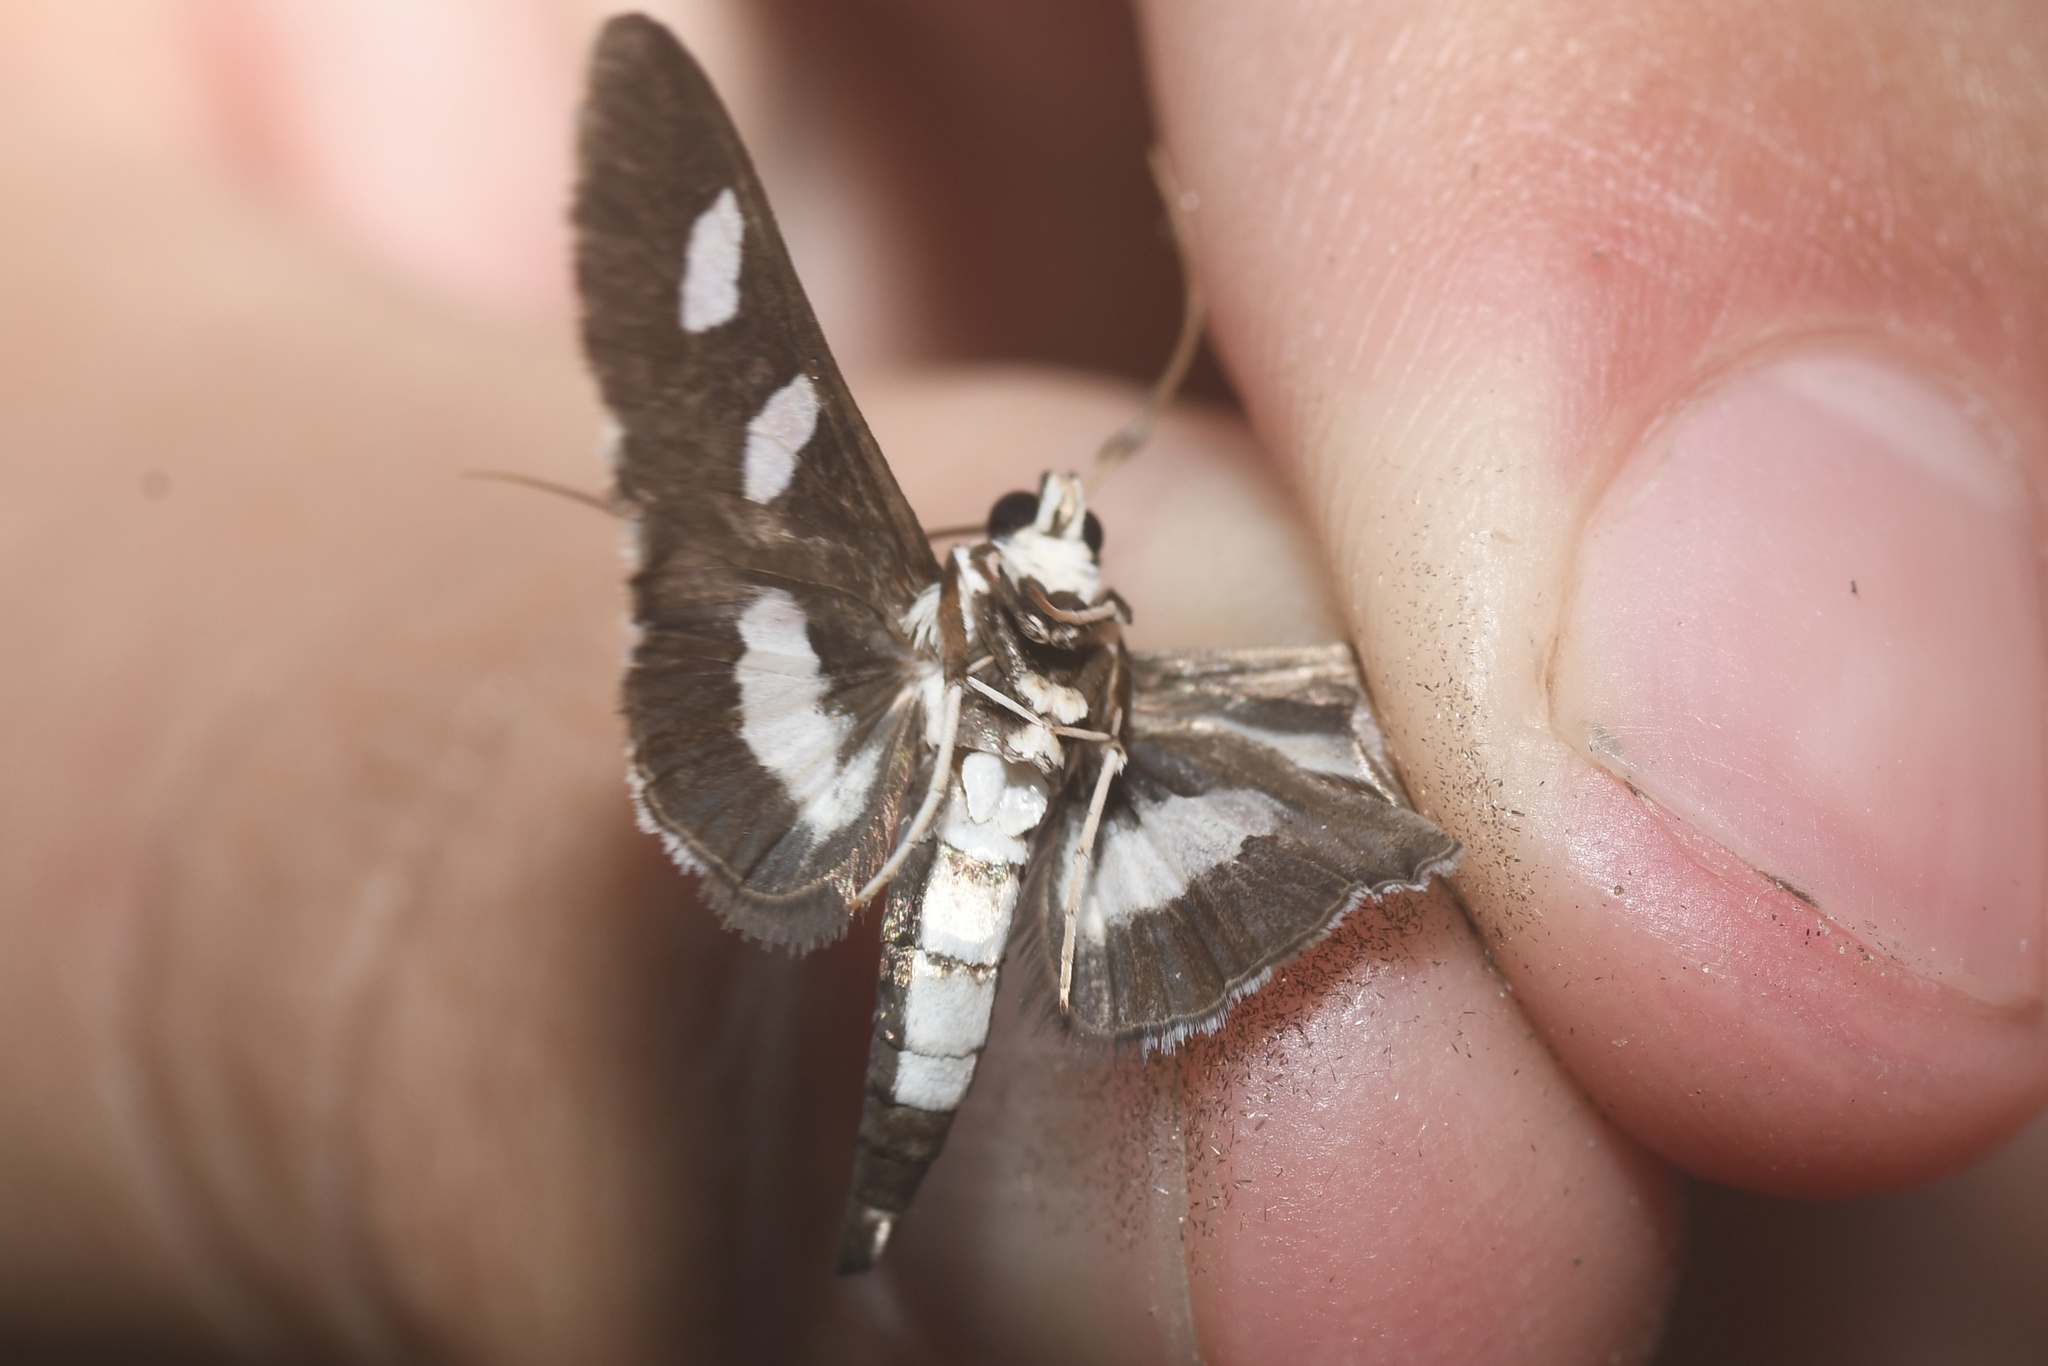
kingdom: Animalia
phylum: Arthropoda
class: Insecta
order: Lepidoptera
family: Crambidae
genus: Desmia
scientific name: Desmia funeralis
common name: Grape leaf folder moth
